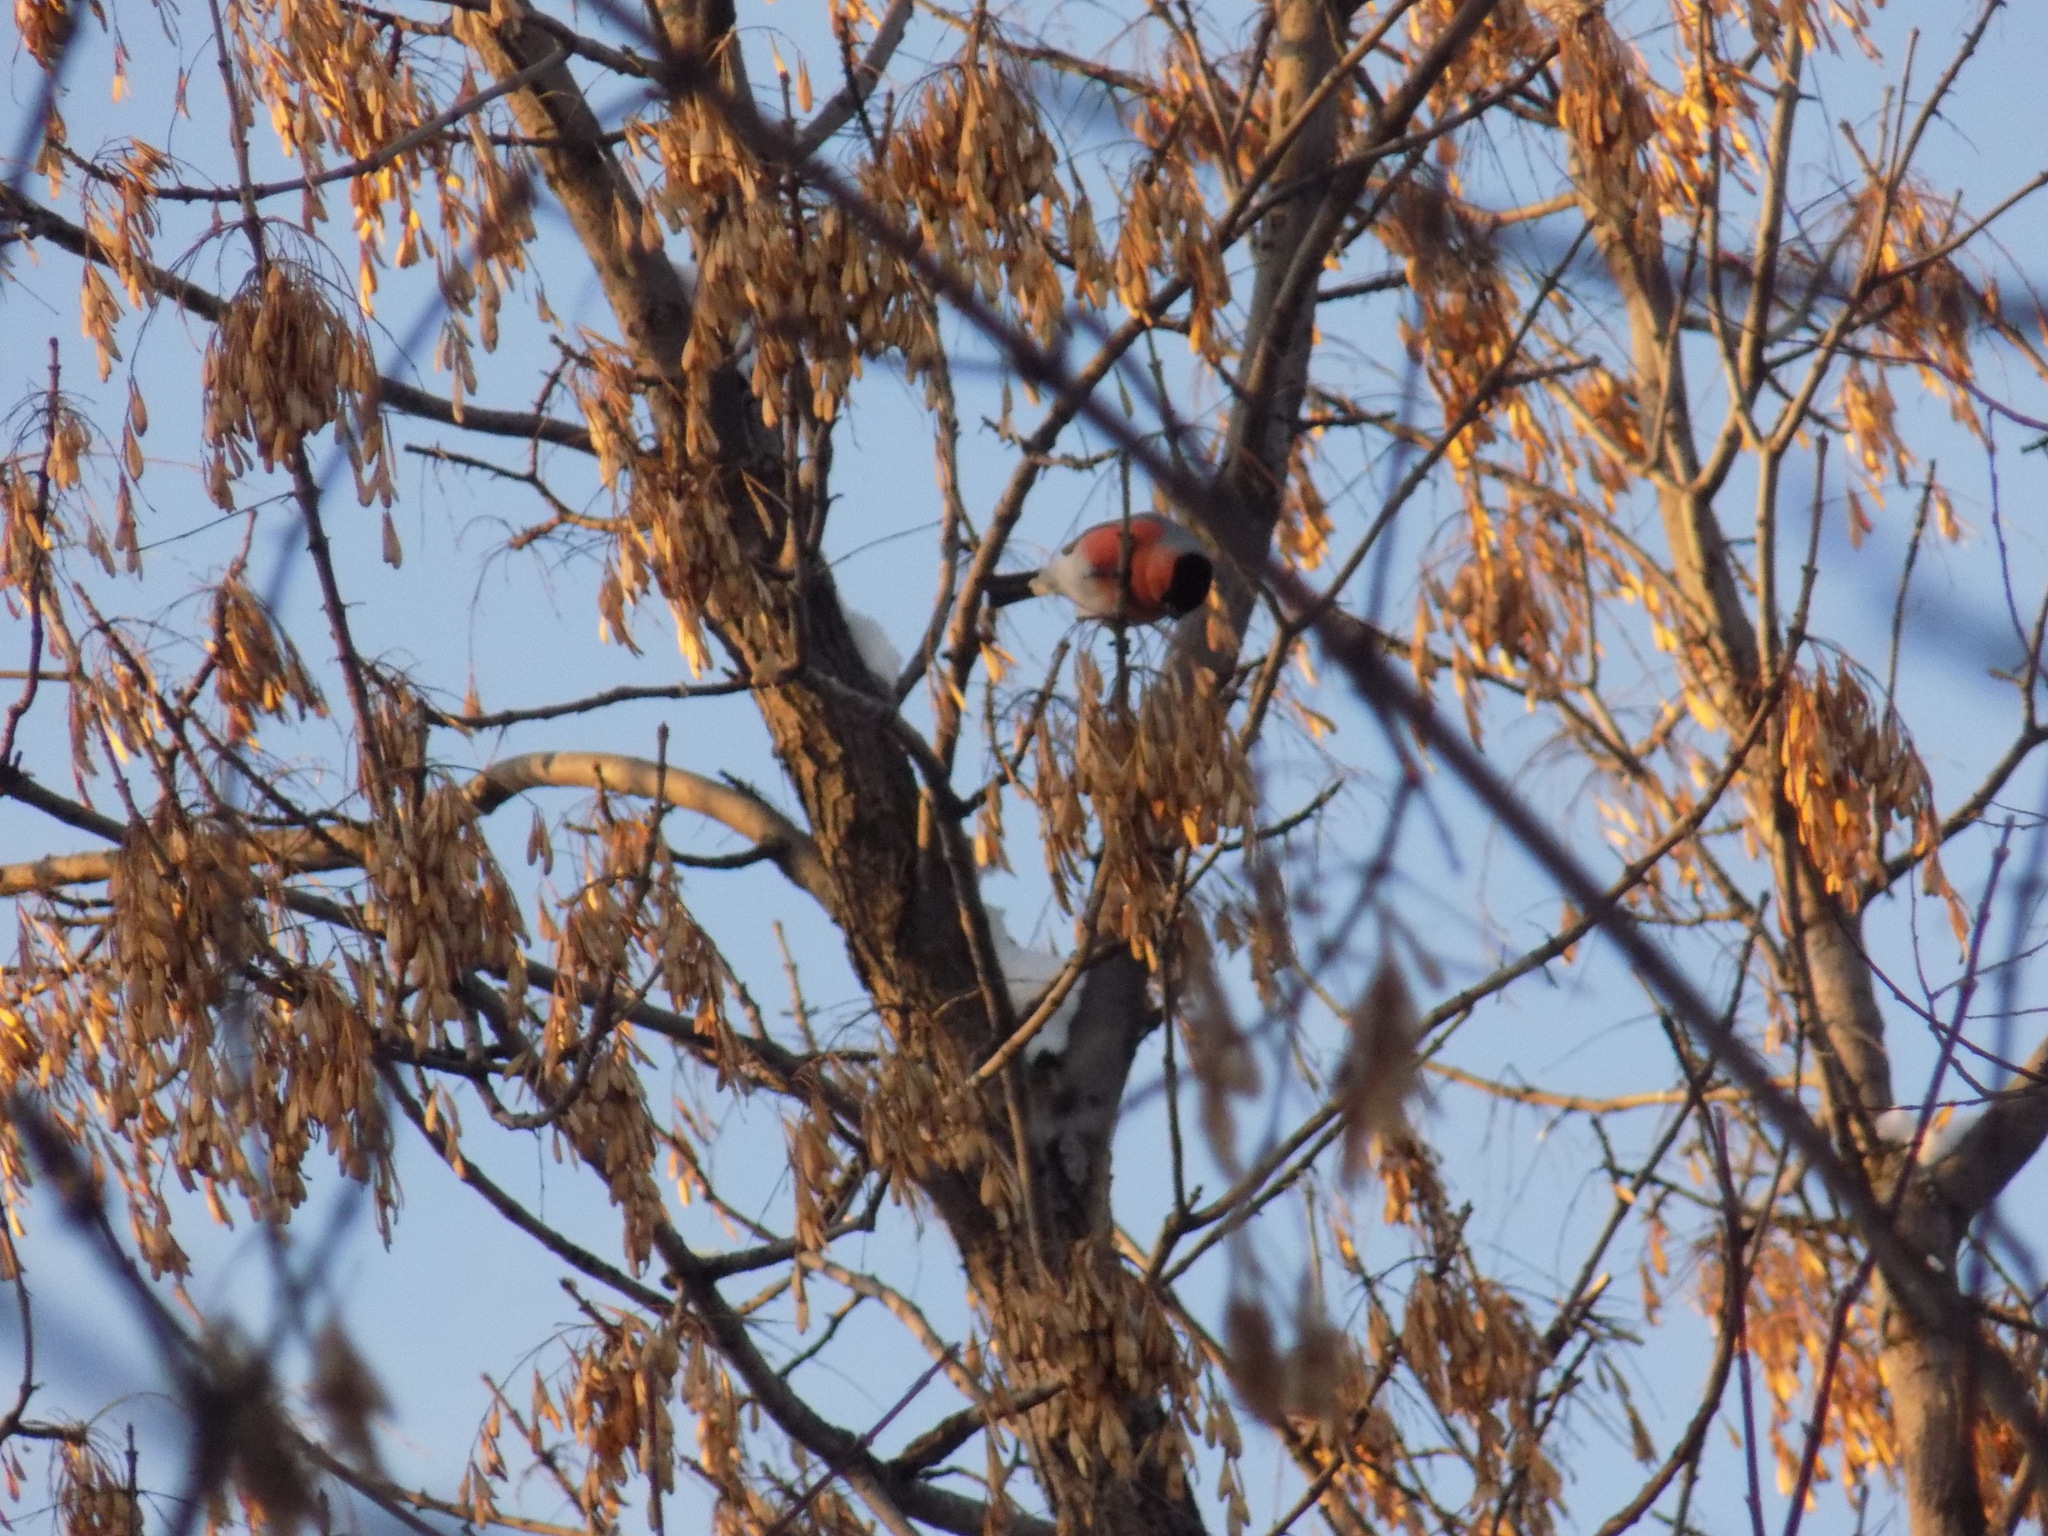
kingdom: Animalia
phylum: Chordata
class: Aves
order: Passeriformes
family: Fringillidae
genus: Pyrrhula
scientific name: Pyrrhula pyrrhula
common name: Eurasian bullfinch
